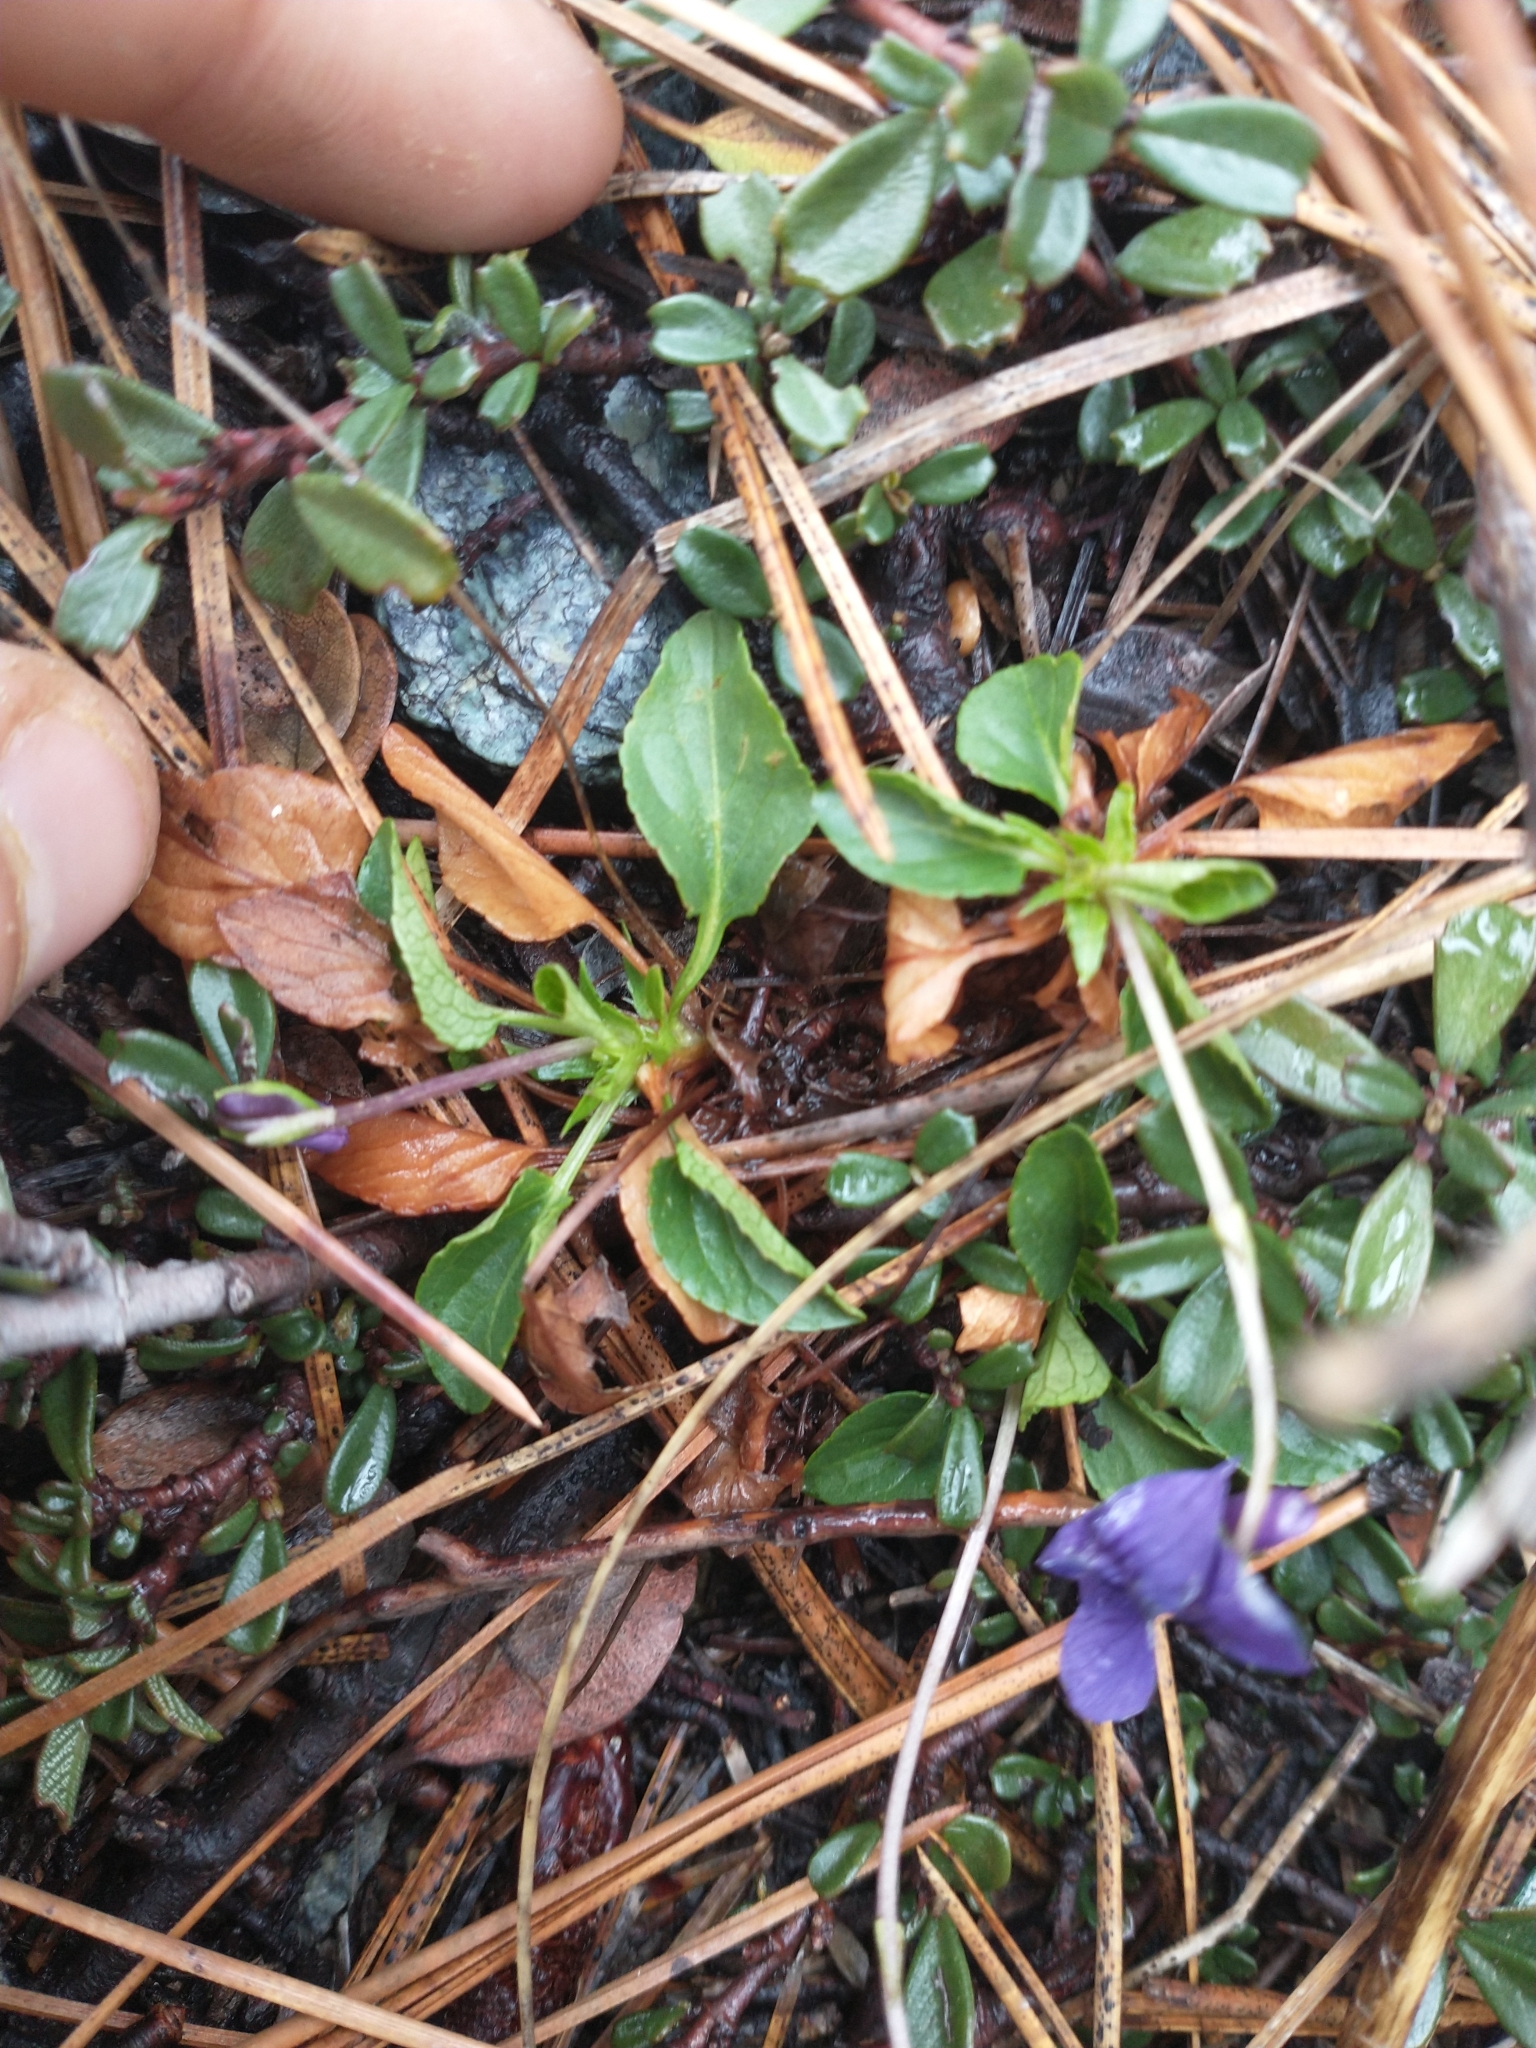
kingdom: Plantae
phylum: Tracheophyta
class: Magnoliopsida
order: Malpighiales
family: Violaceae
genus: Viola
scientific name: Viola adunca
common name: Sand violet
